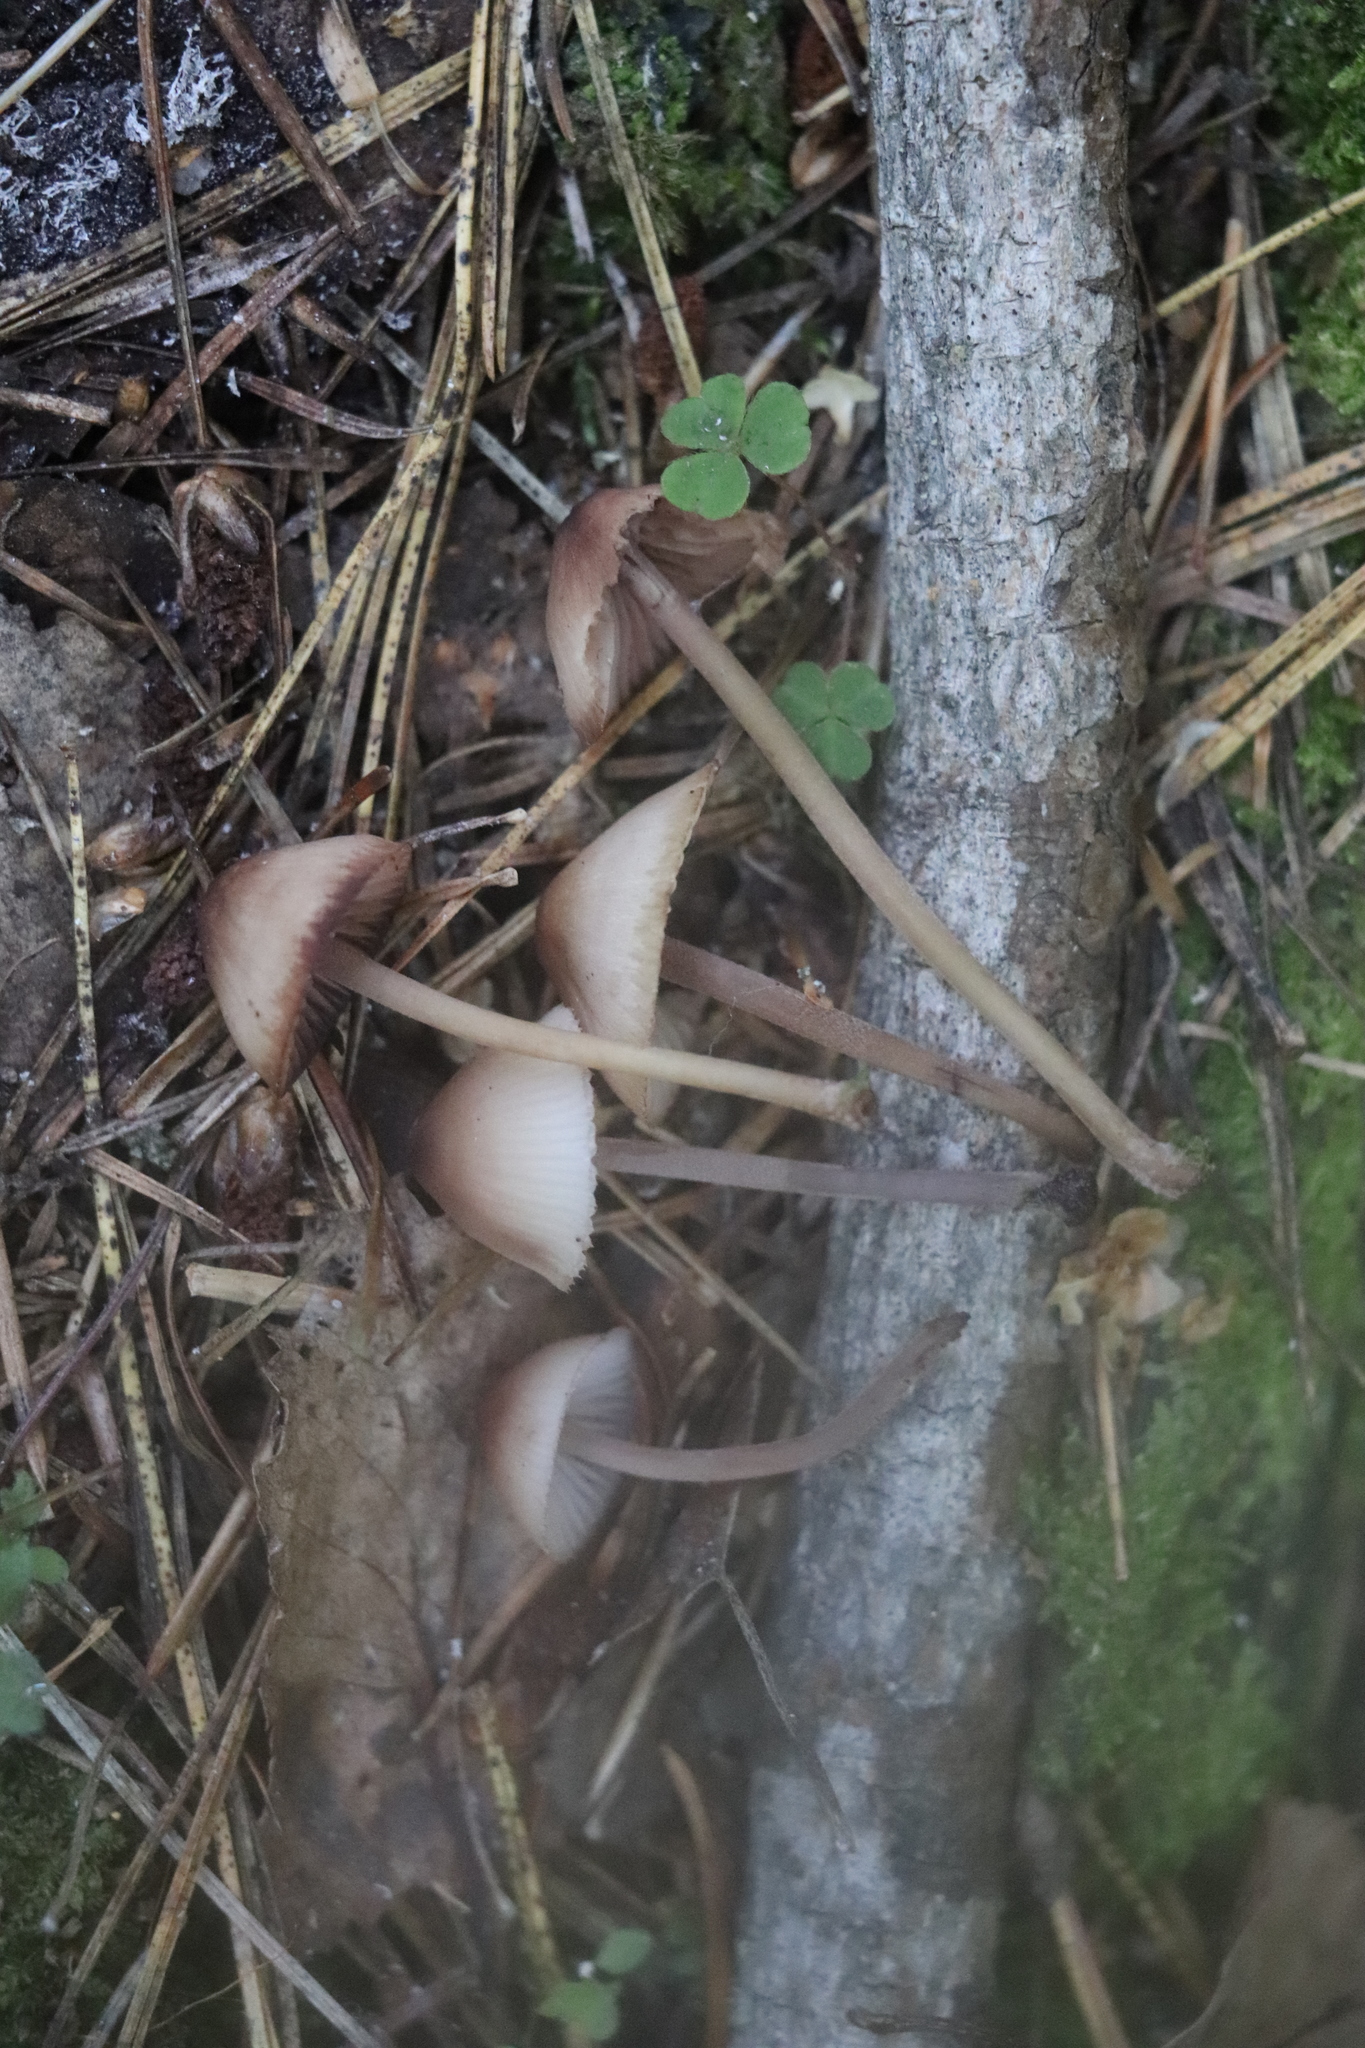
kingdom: Fungi
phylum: Basidiomycota
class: Agaricomycetes
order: Agaricales
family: Mycenaceae
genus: Mycena
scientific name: Mycena haematopus
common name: Burgundydrop bonnet
